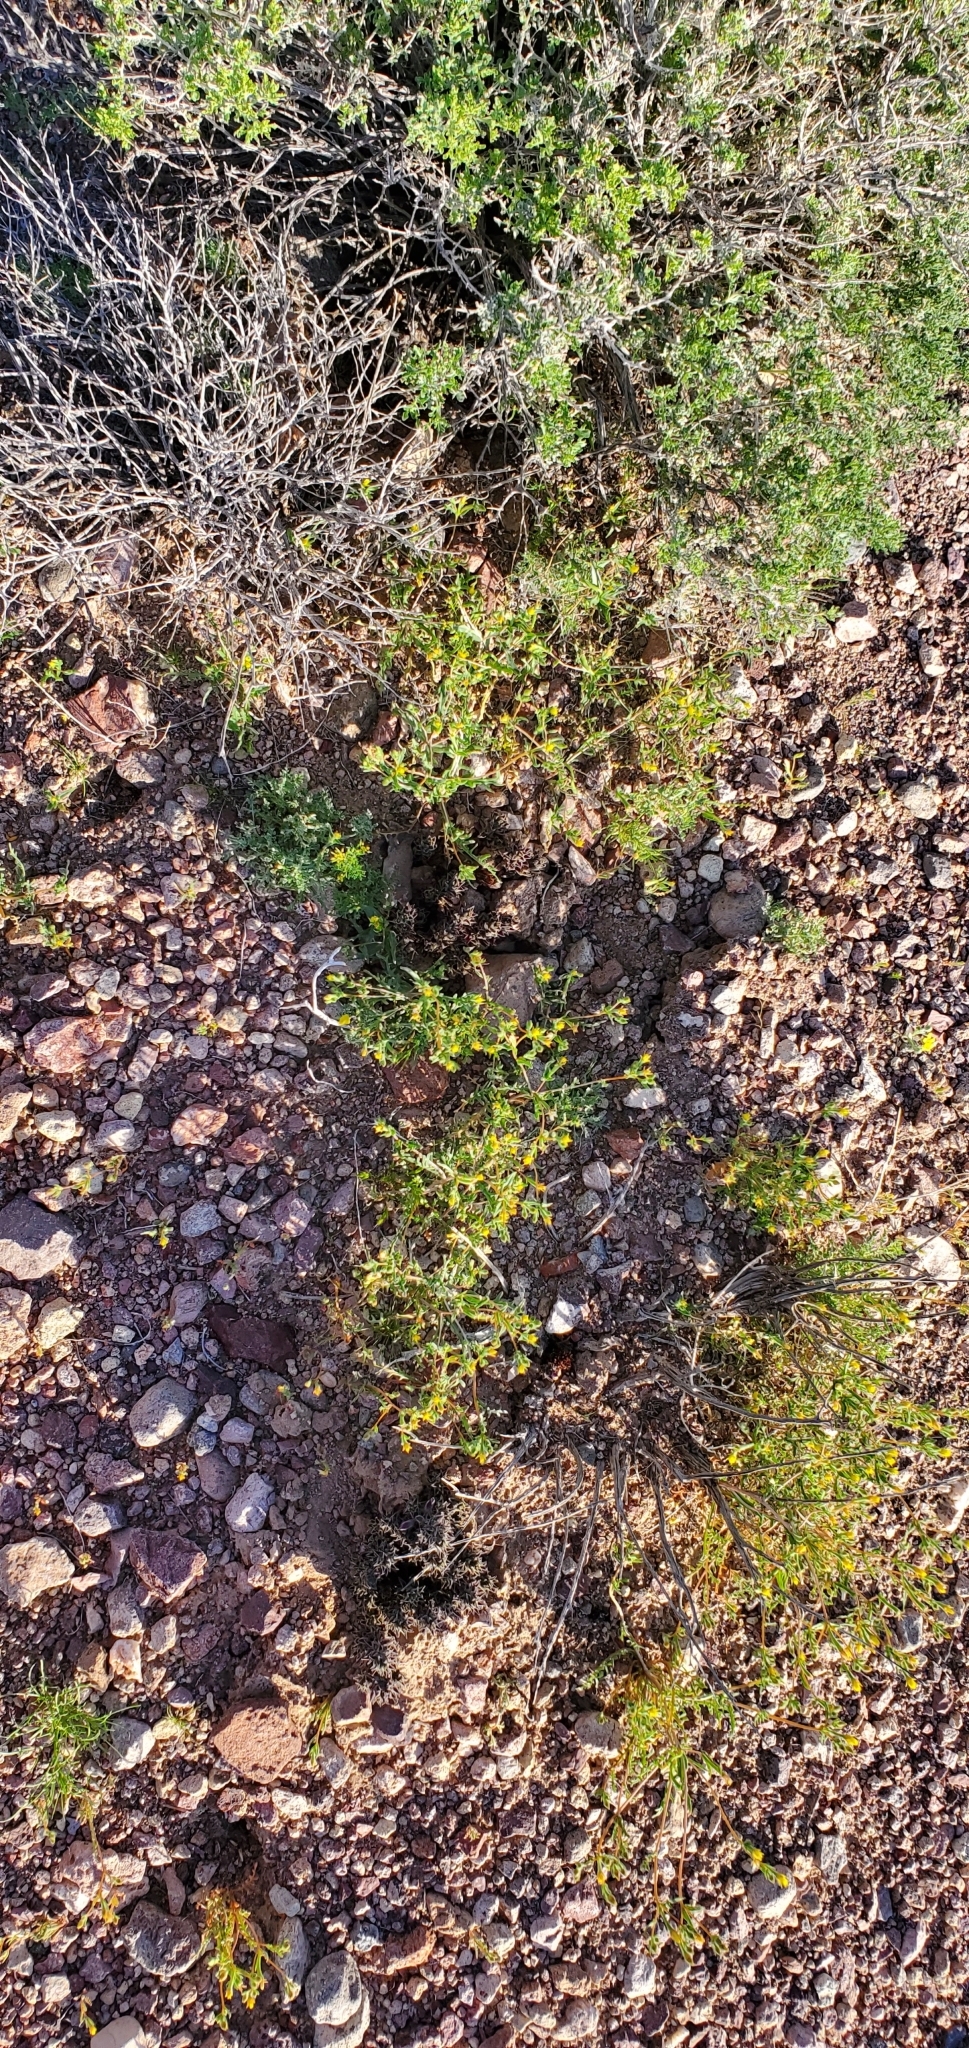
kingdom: Plantae
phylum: Tracheophyta
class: Magnoliopsida
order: Lamiales
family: Orobanchaceae
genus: Aphyllon
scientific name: Aphyllon cooperi
